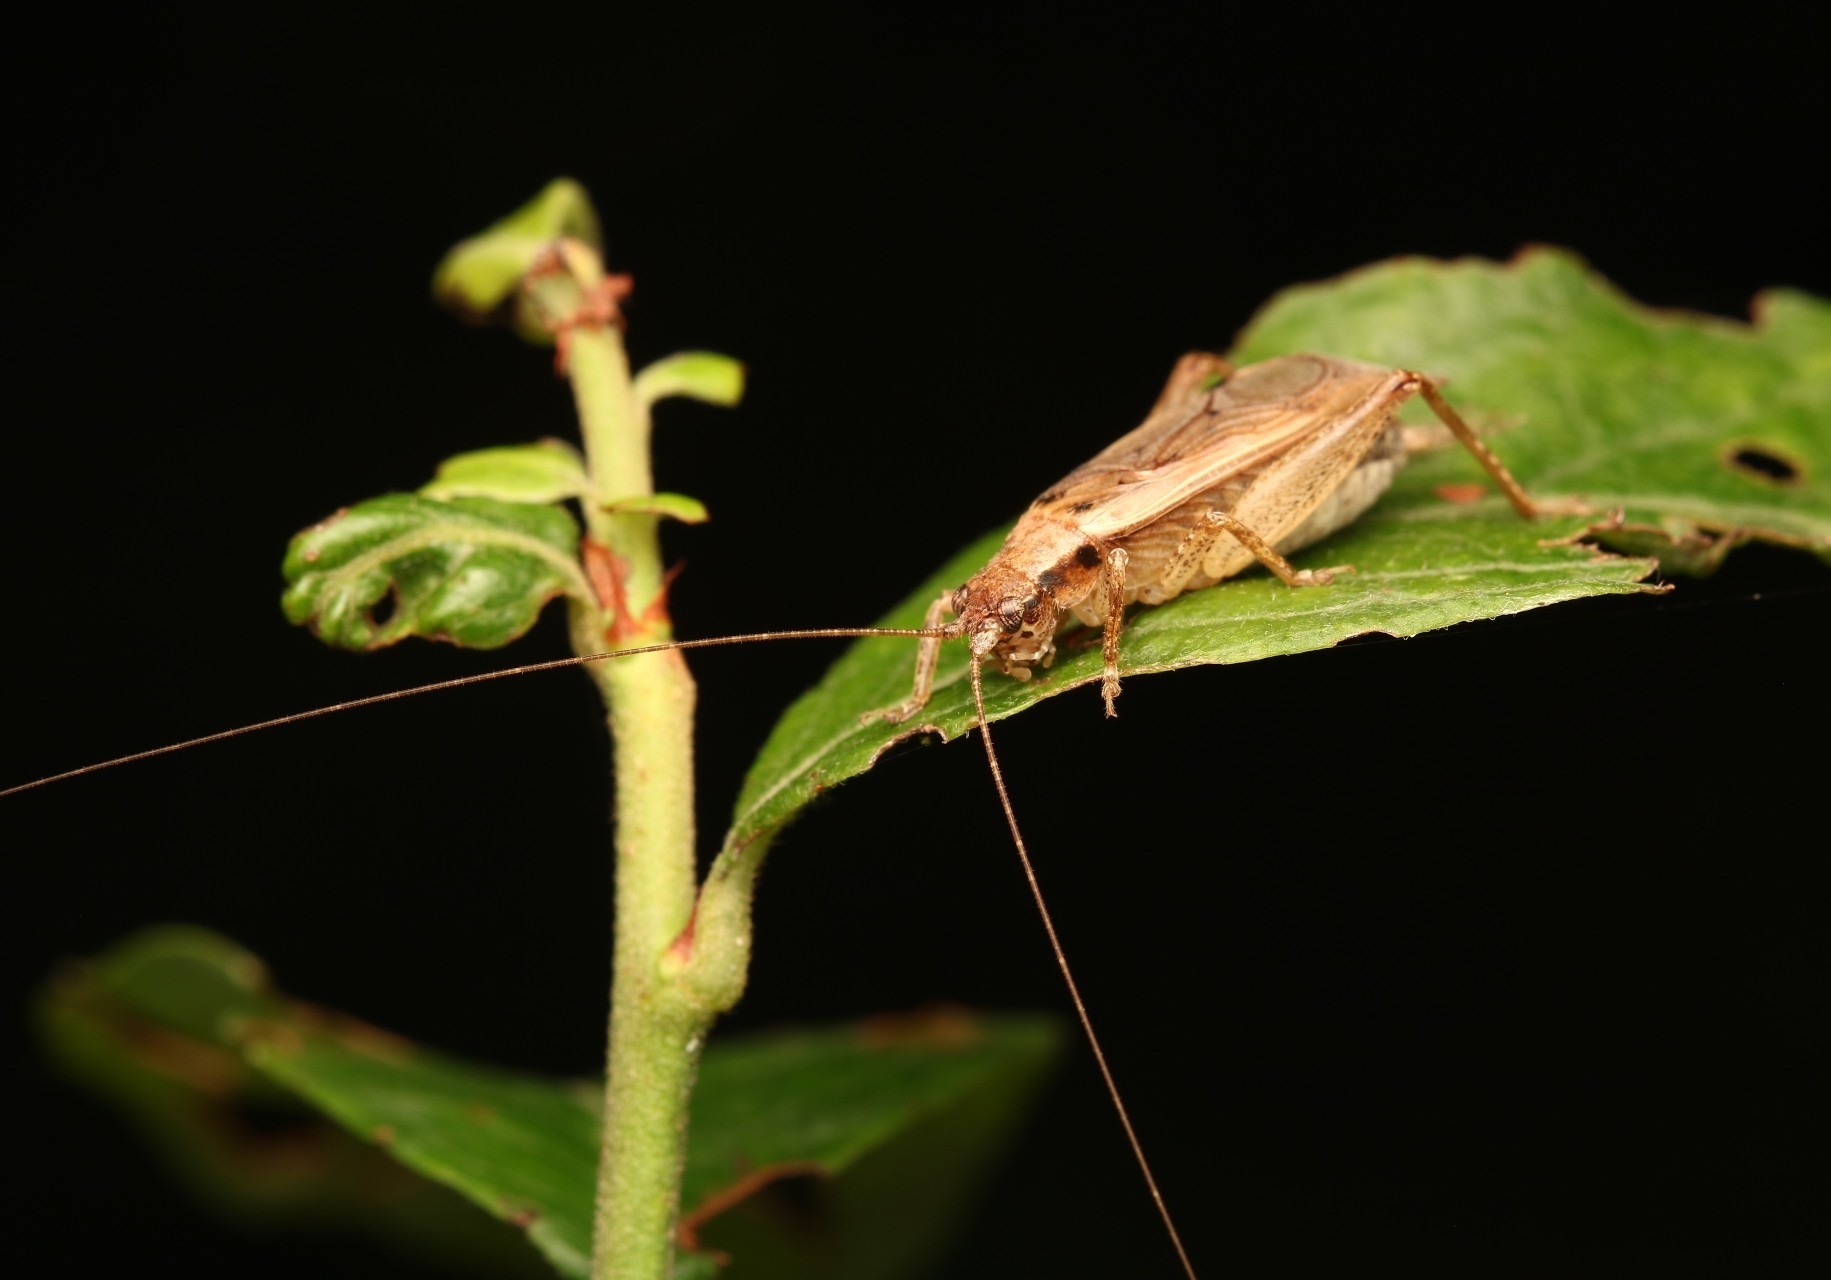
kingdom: Animalia
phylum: Arthropoda
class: Insecta
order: Orthoptera
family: Gryllidae
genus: Hapithus
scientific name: Hapithus saltator
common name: Jumping bush cricket
